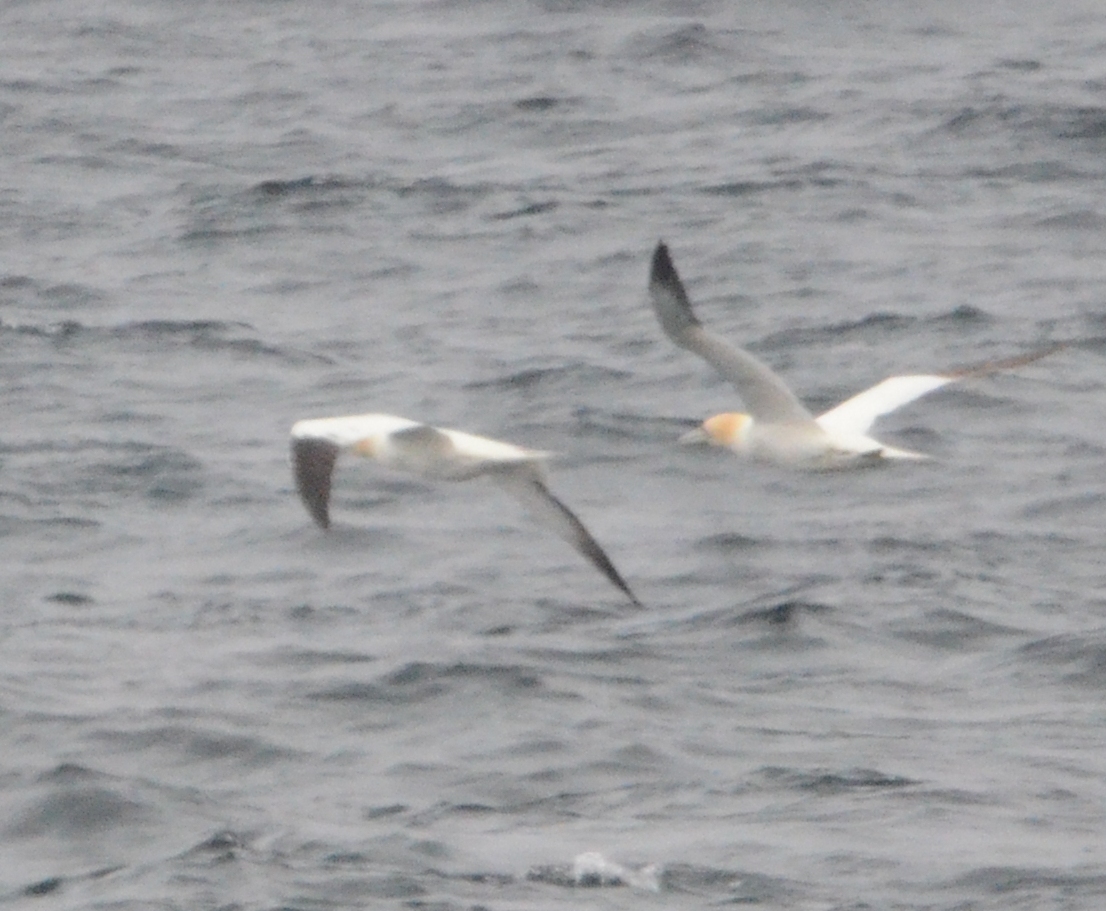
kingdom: Animalia
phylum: Chordata
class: Aves
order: Suliformes
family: Sulidae
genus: Morus
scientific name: Morus bassanus
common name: Northern gannet
